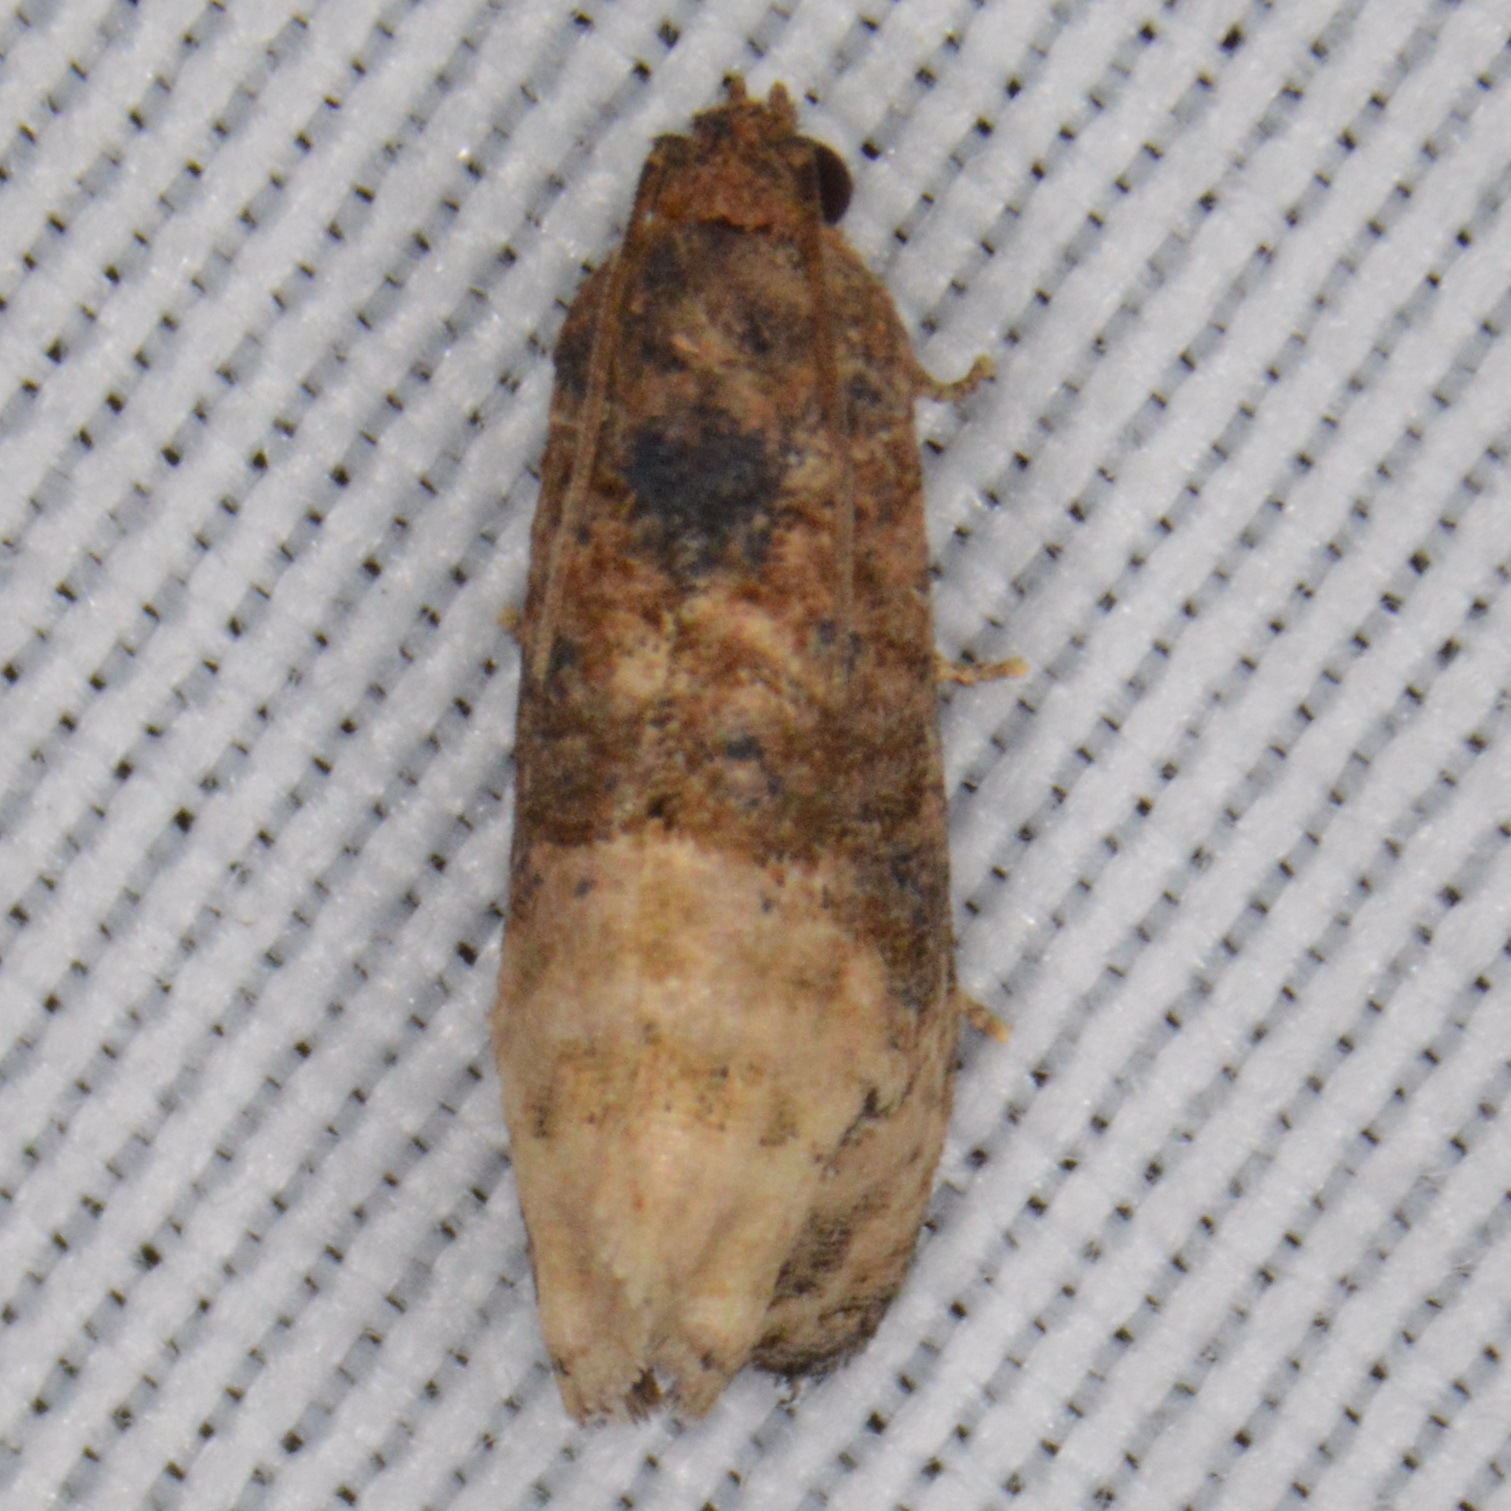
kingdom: Animalia
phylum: Arthropoda
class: Insecta
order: Lepidoptera
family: Tortricidae
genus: Ecdytolopha
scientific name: Ecdytolopha mana
